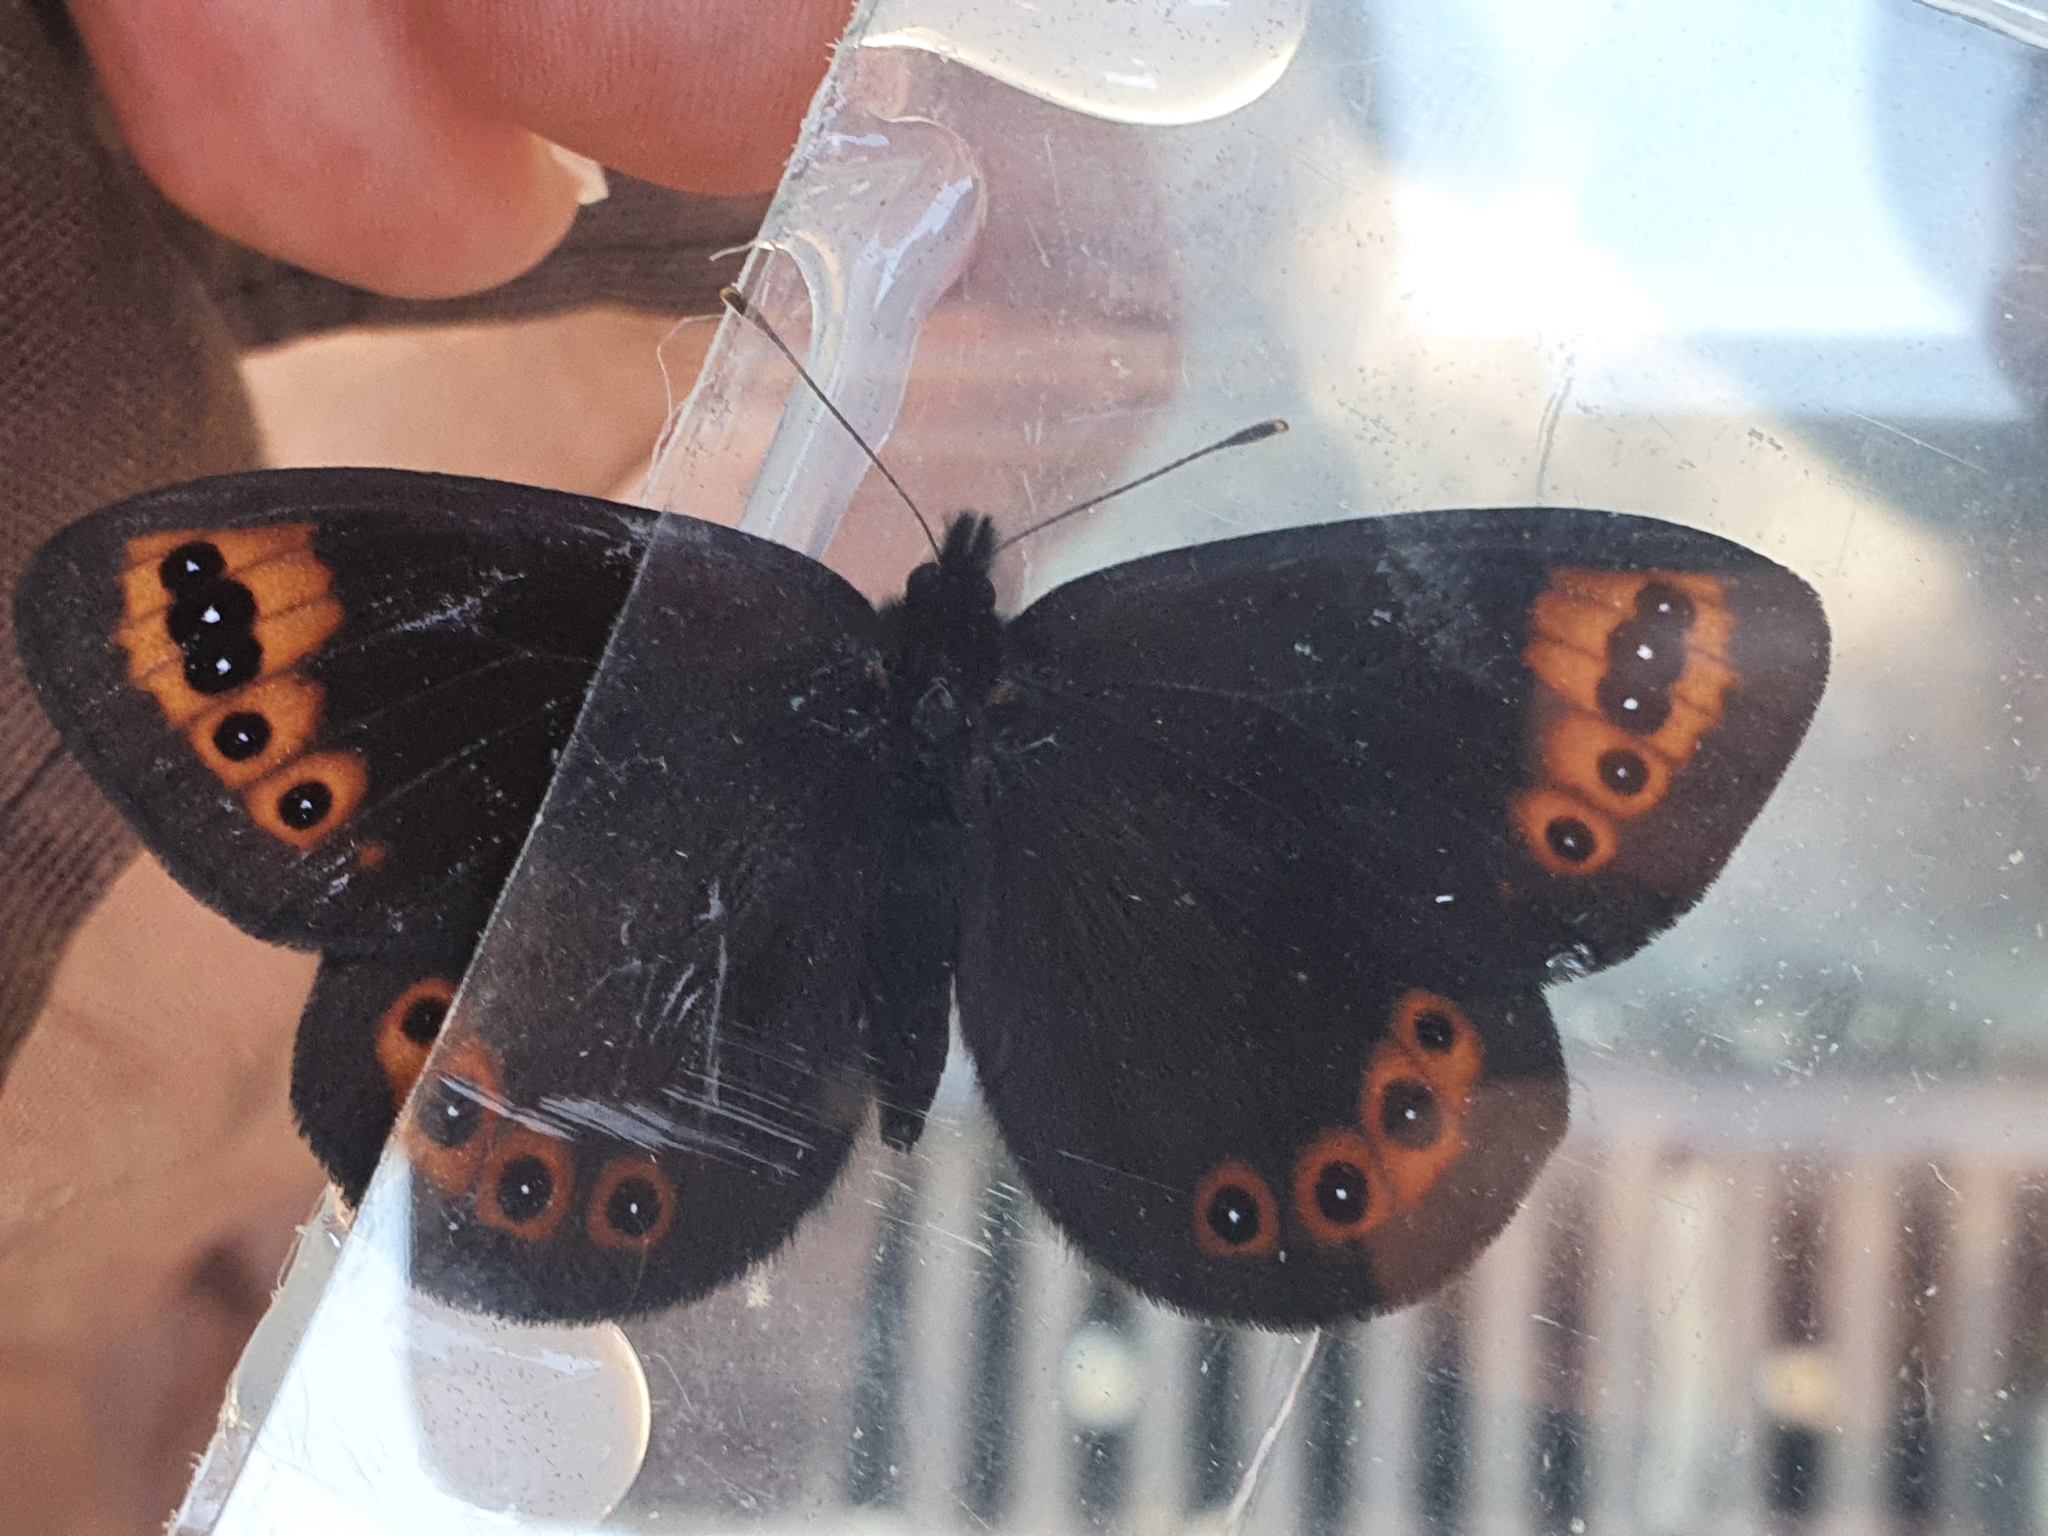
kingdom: Animalia
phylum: Arthropoda
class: Insecta
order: Lepidoptera
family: Nymphalidae
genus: Erebia
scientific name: Erebia triarius
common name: De prunner’s ringlet
